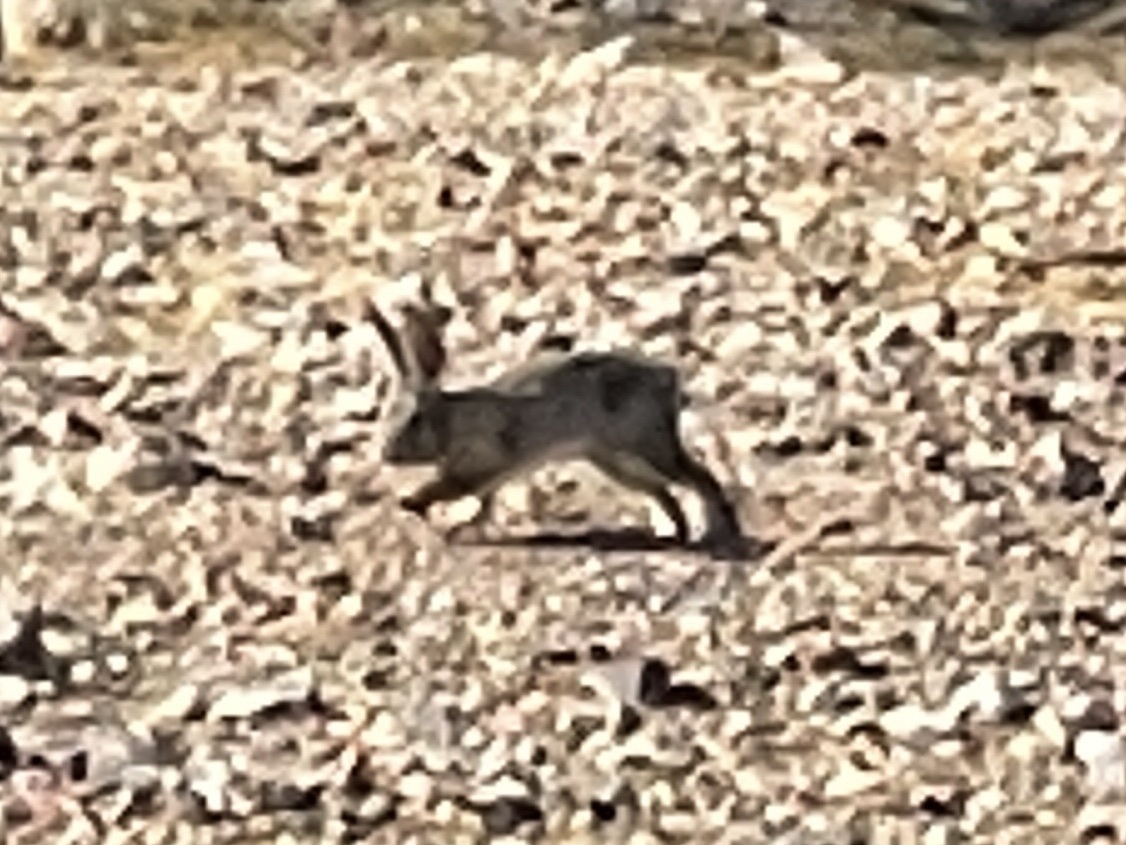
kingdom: Animalia
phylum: Chordata
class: Mammalia
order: Lagomorpha
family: Leporidae
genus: Sylvilagus
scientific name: Sylvilagus audubonii
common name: Desert cottontail
